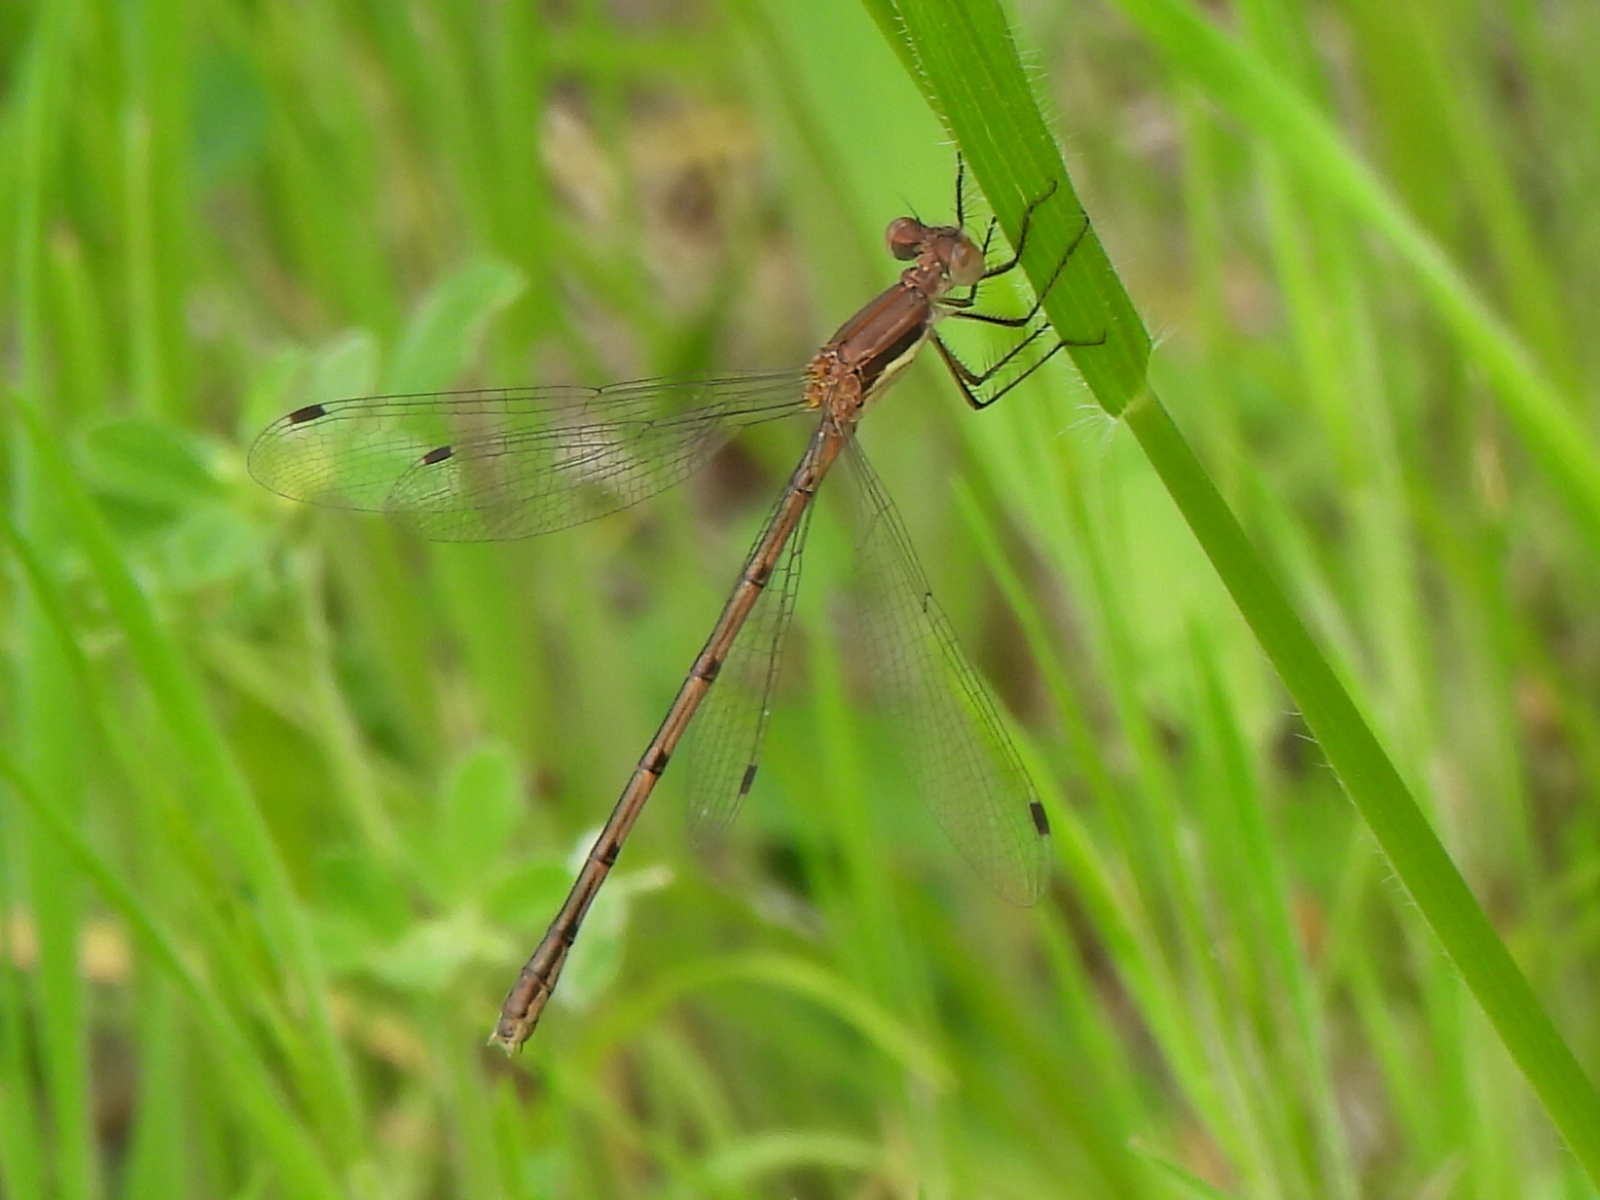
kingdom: Animalia
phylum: Arthropoda
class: Insecta
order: Odonata
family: Lestidae
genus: Lestes
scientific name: Lestes australis
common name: Southern spreadwing
